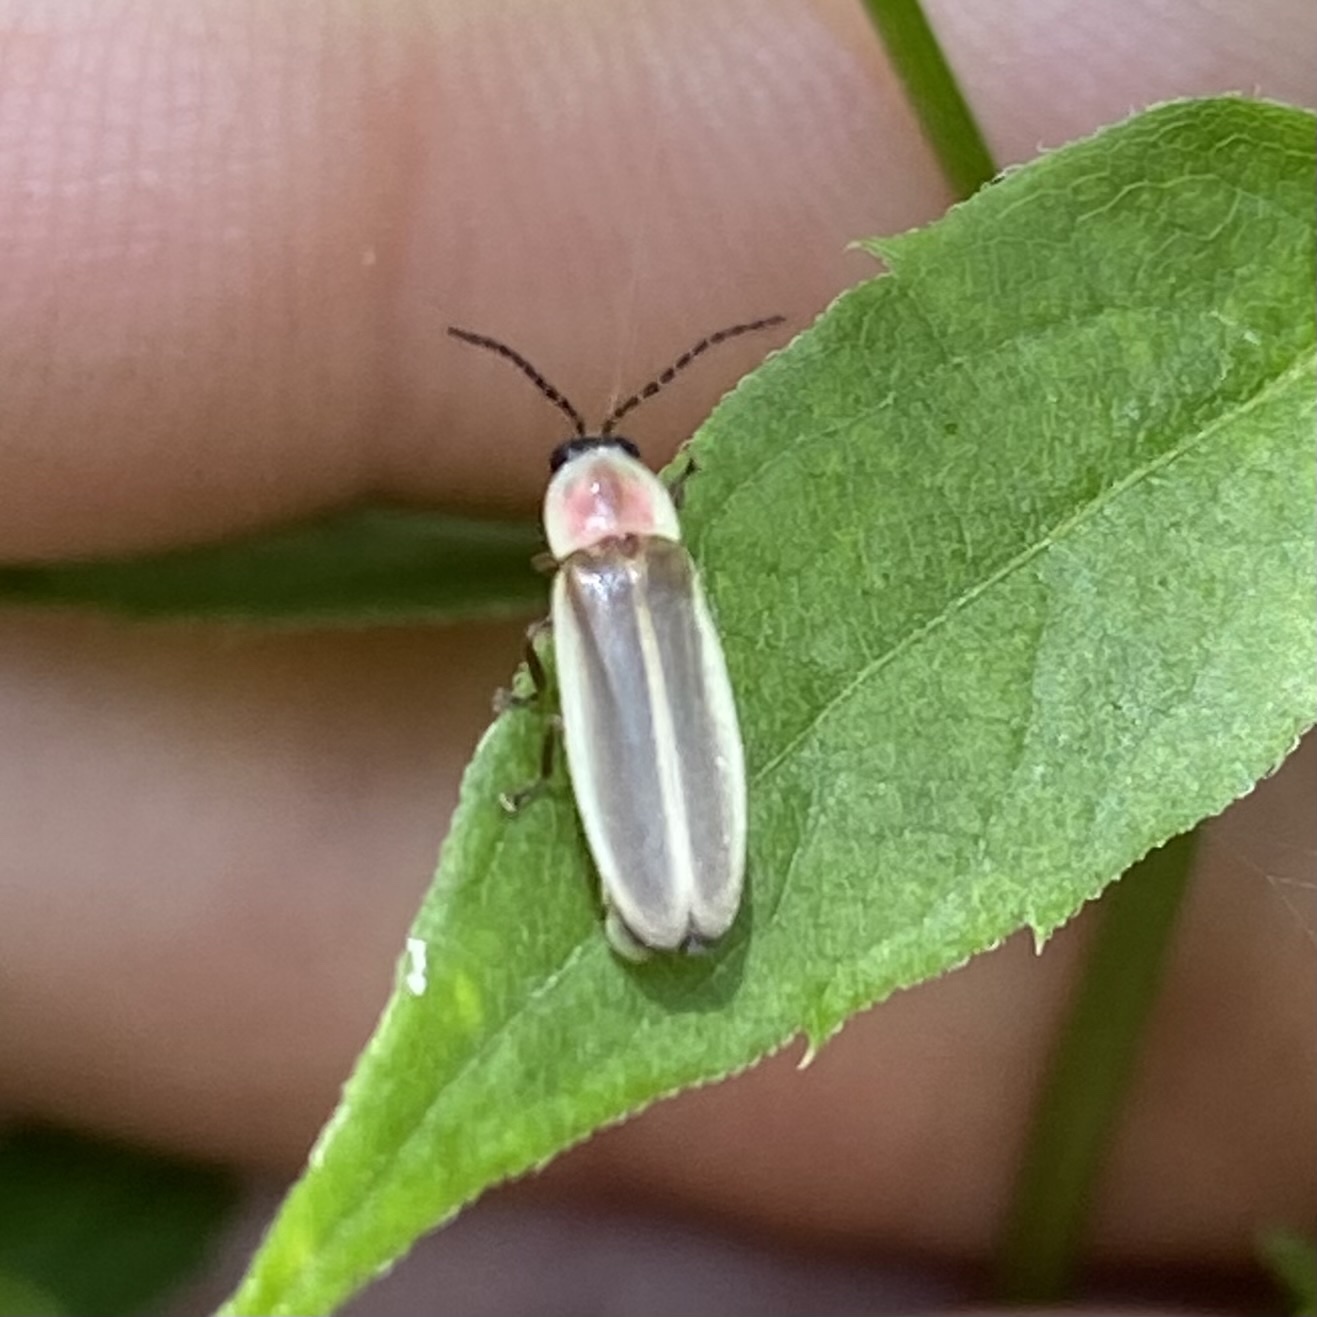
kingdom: Animalia
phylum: Arthropoda
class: Insecta
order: Coleoptera
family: Lampyridae
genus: Photinus
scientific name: Photinus
